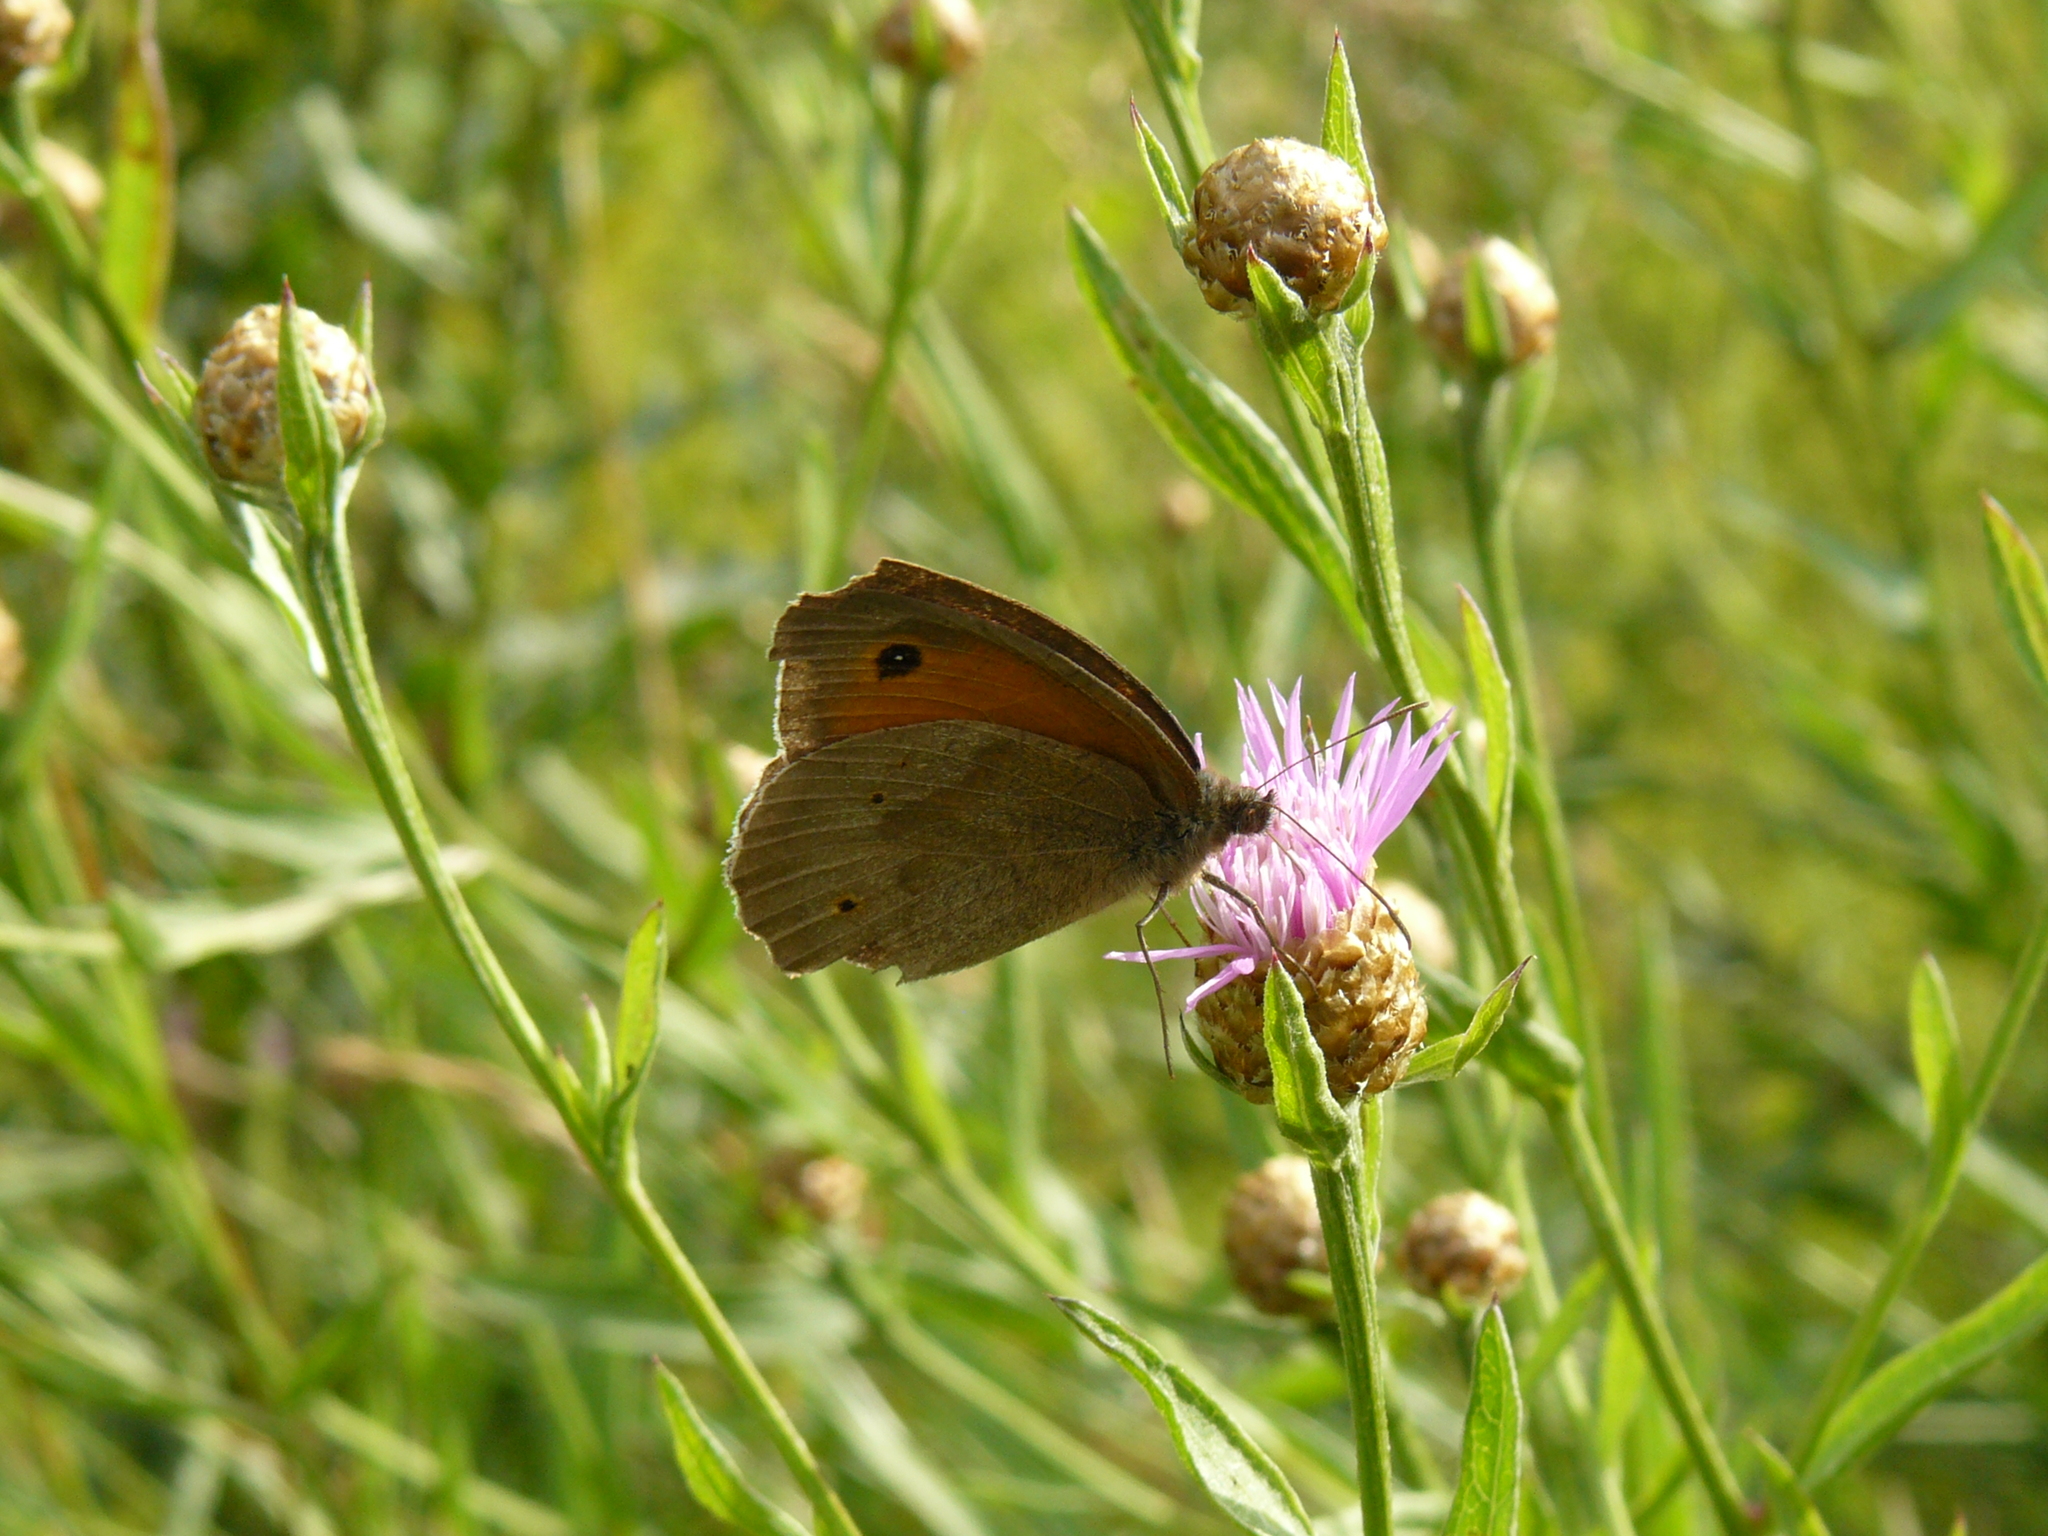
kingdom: Animalia
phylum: Arthropoda
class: Insecta
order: Lepidoptera
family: Nymphalidae
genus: Maniola
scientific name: Maniola jurtina
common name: Meadow brown
